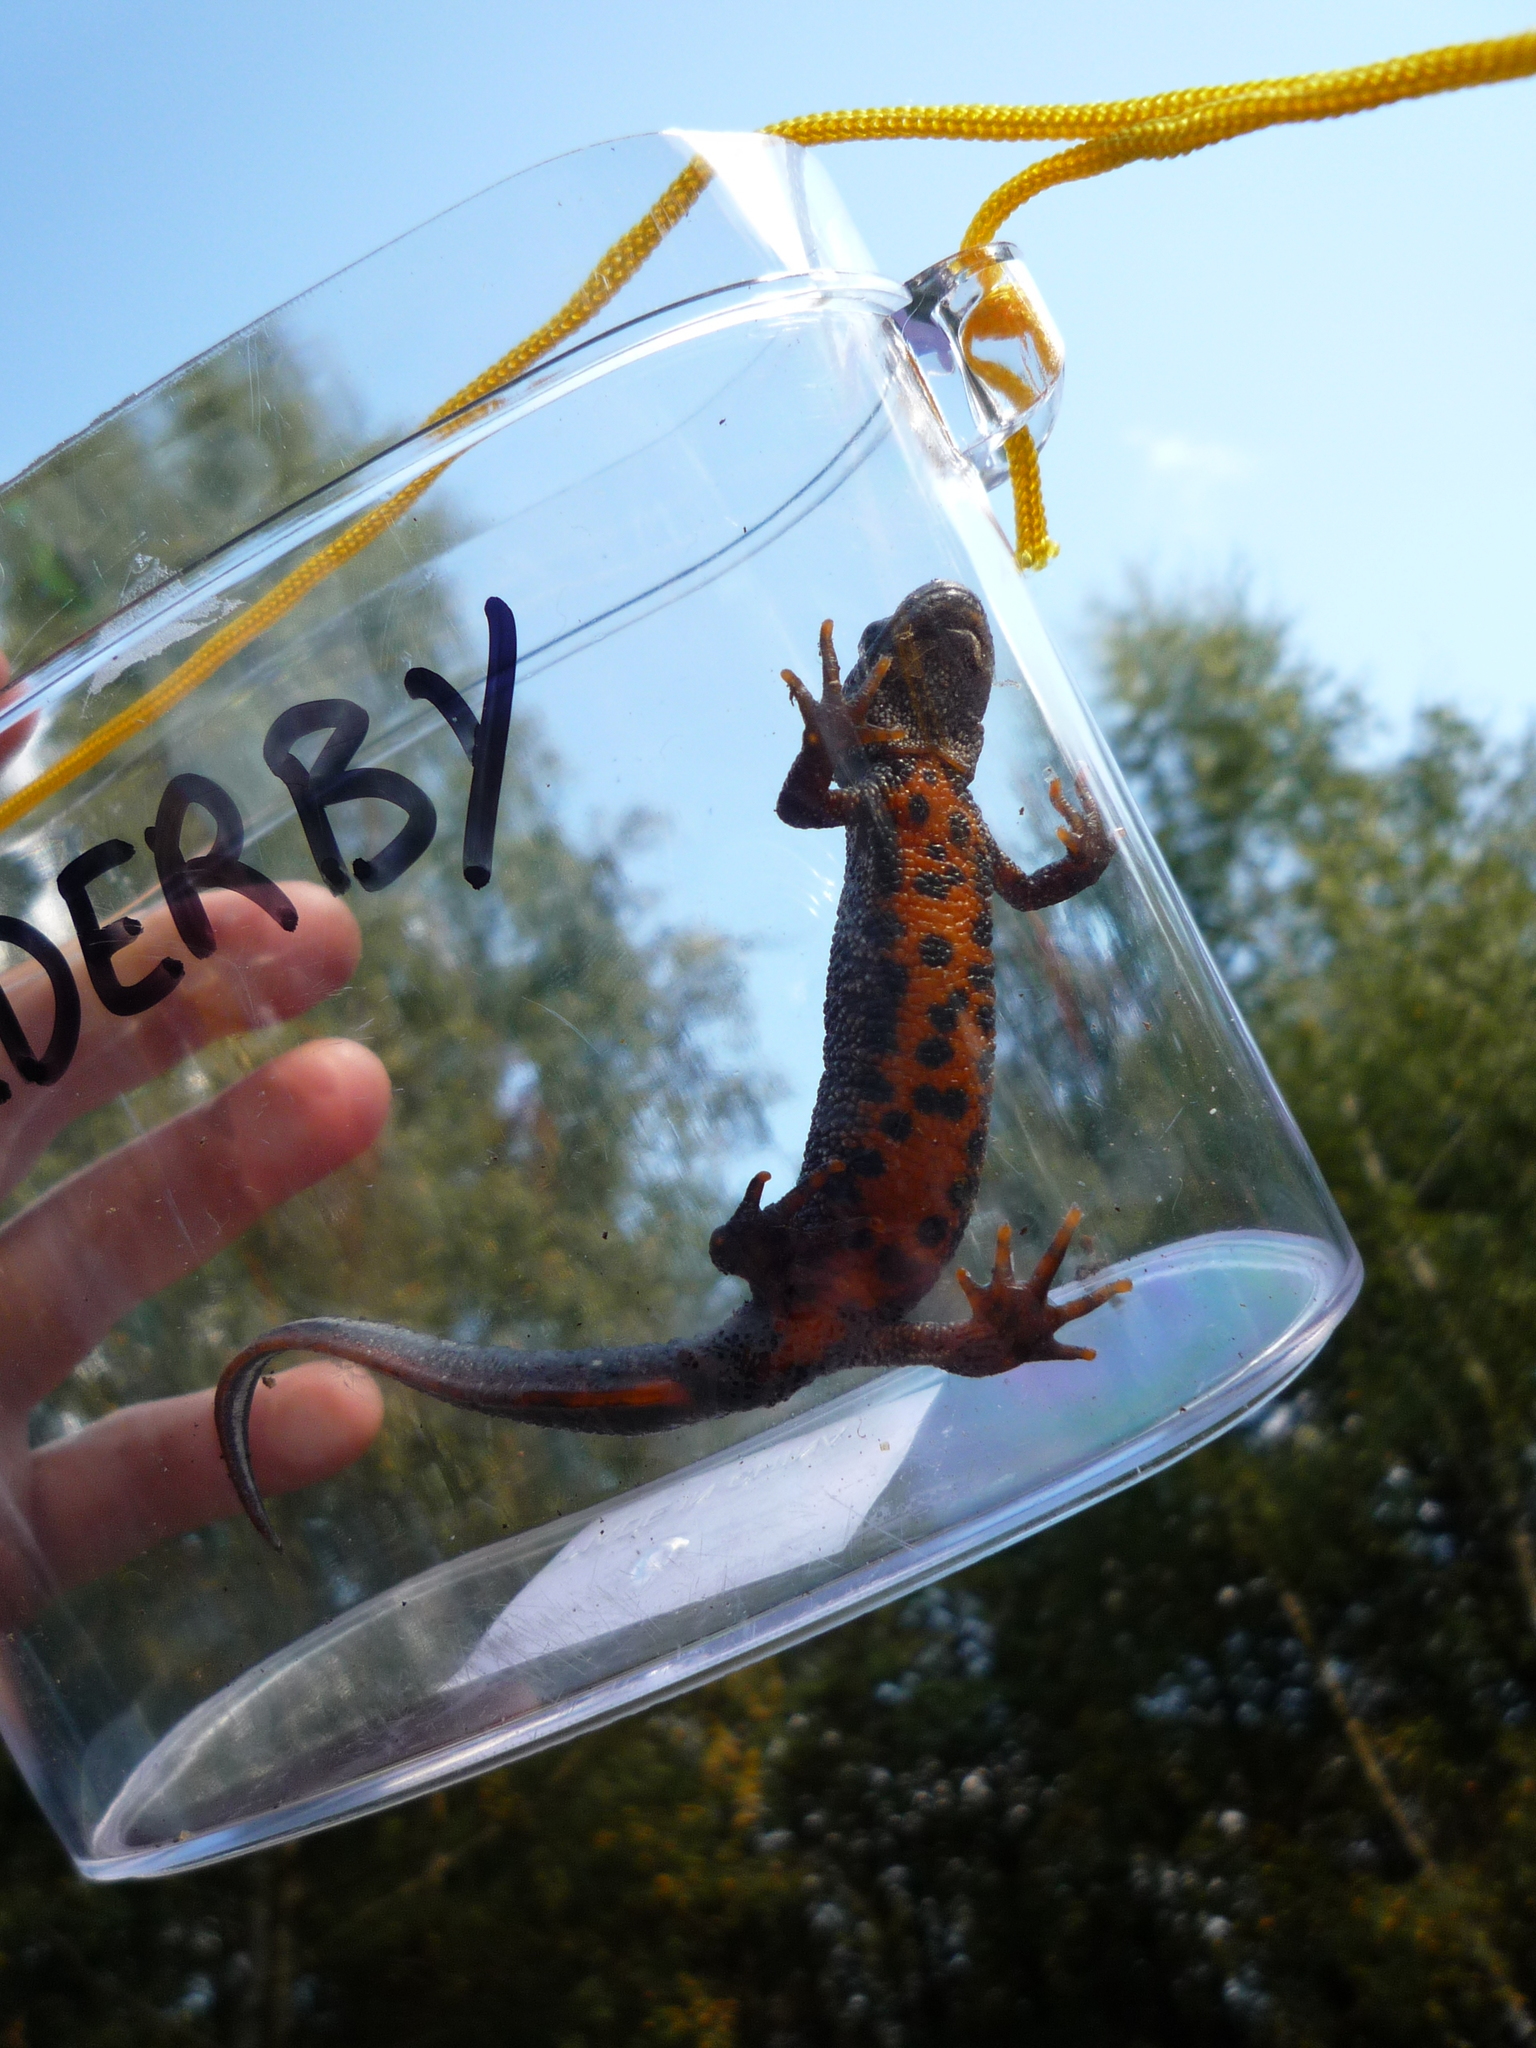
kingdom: Animalia
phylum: Chordata
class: Amphibia
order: Caudata
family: Salamandridae
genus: Triturus
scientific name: Triturus cristatus
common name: Crested newt
